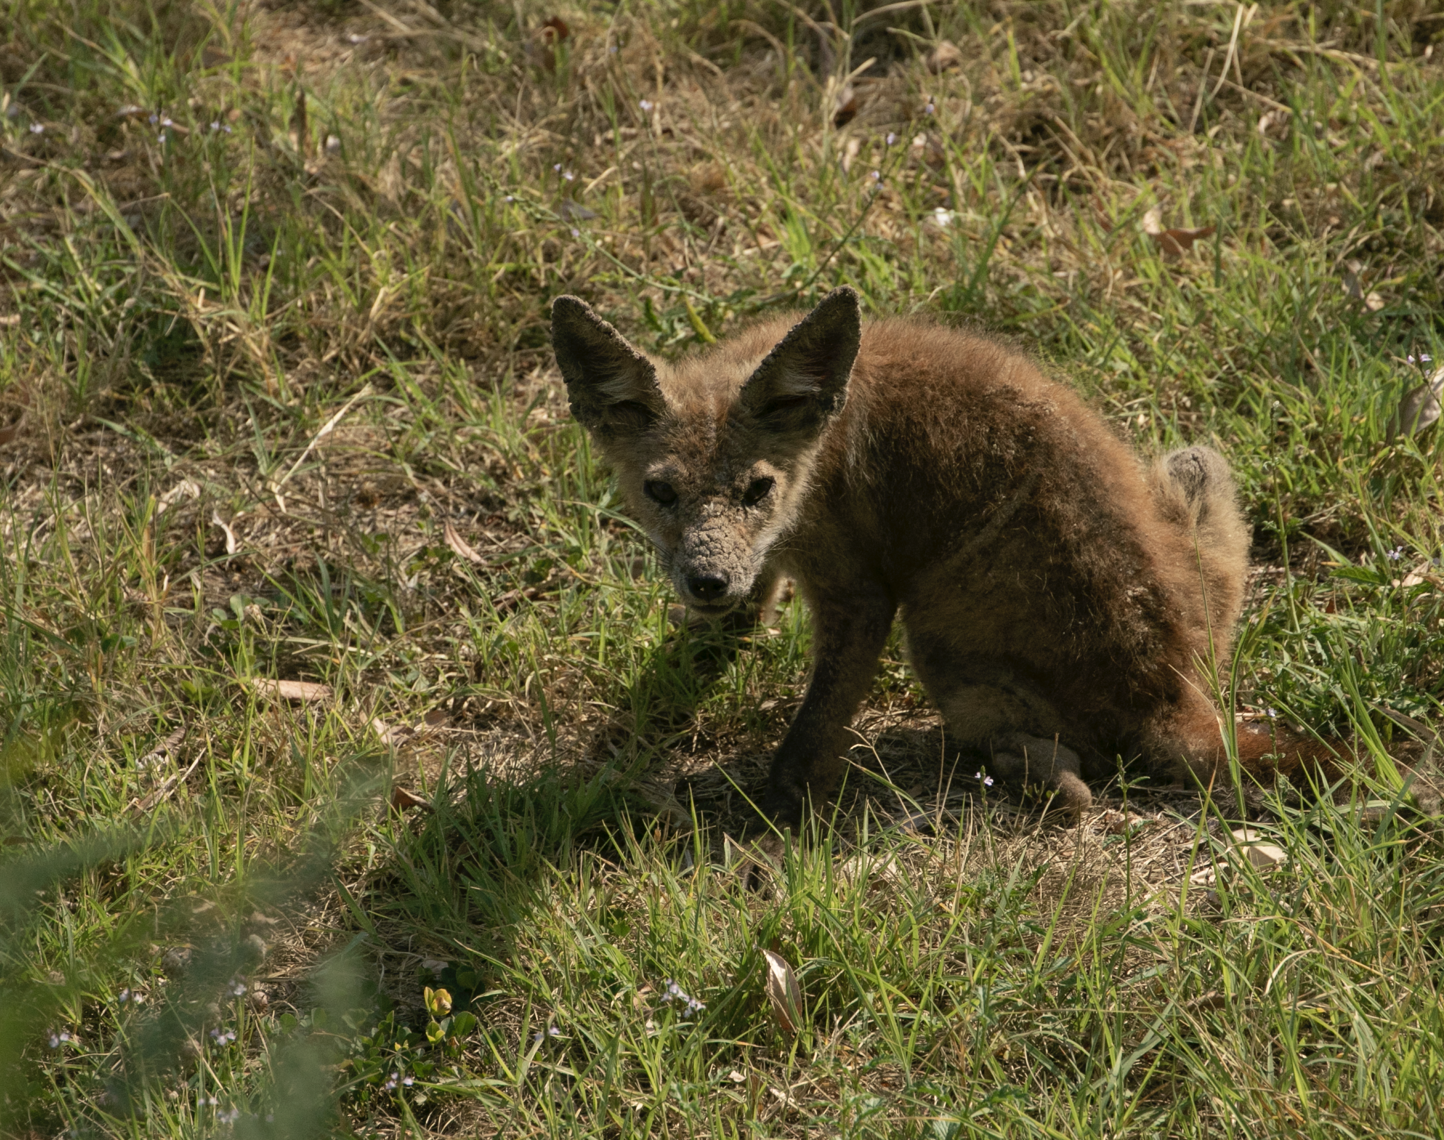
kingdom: Animalia
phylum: Chordata
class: Mammalia
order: Carnivora
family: Canidae
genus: Vulpes
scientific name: Vulpes vulpes
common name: Red fox
